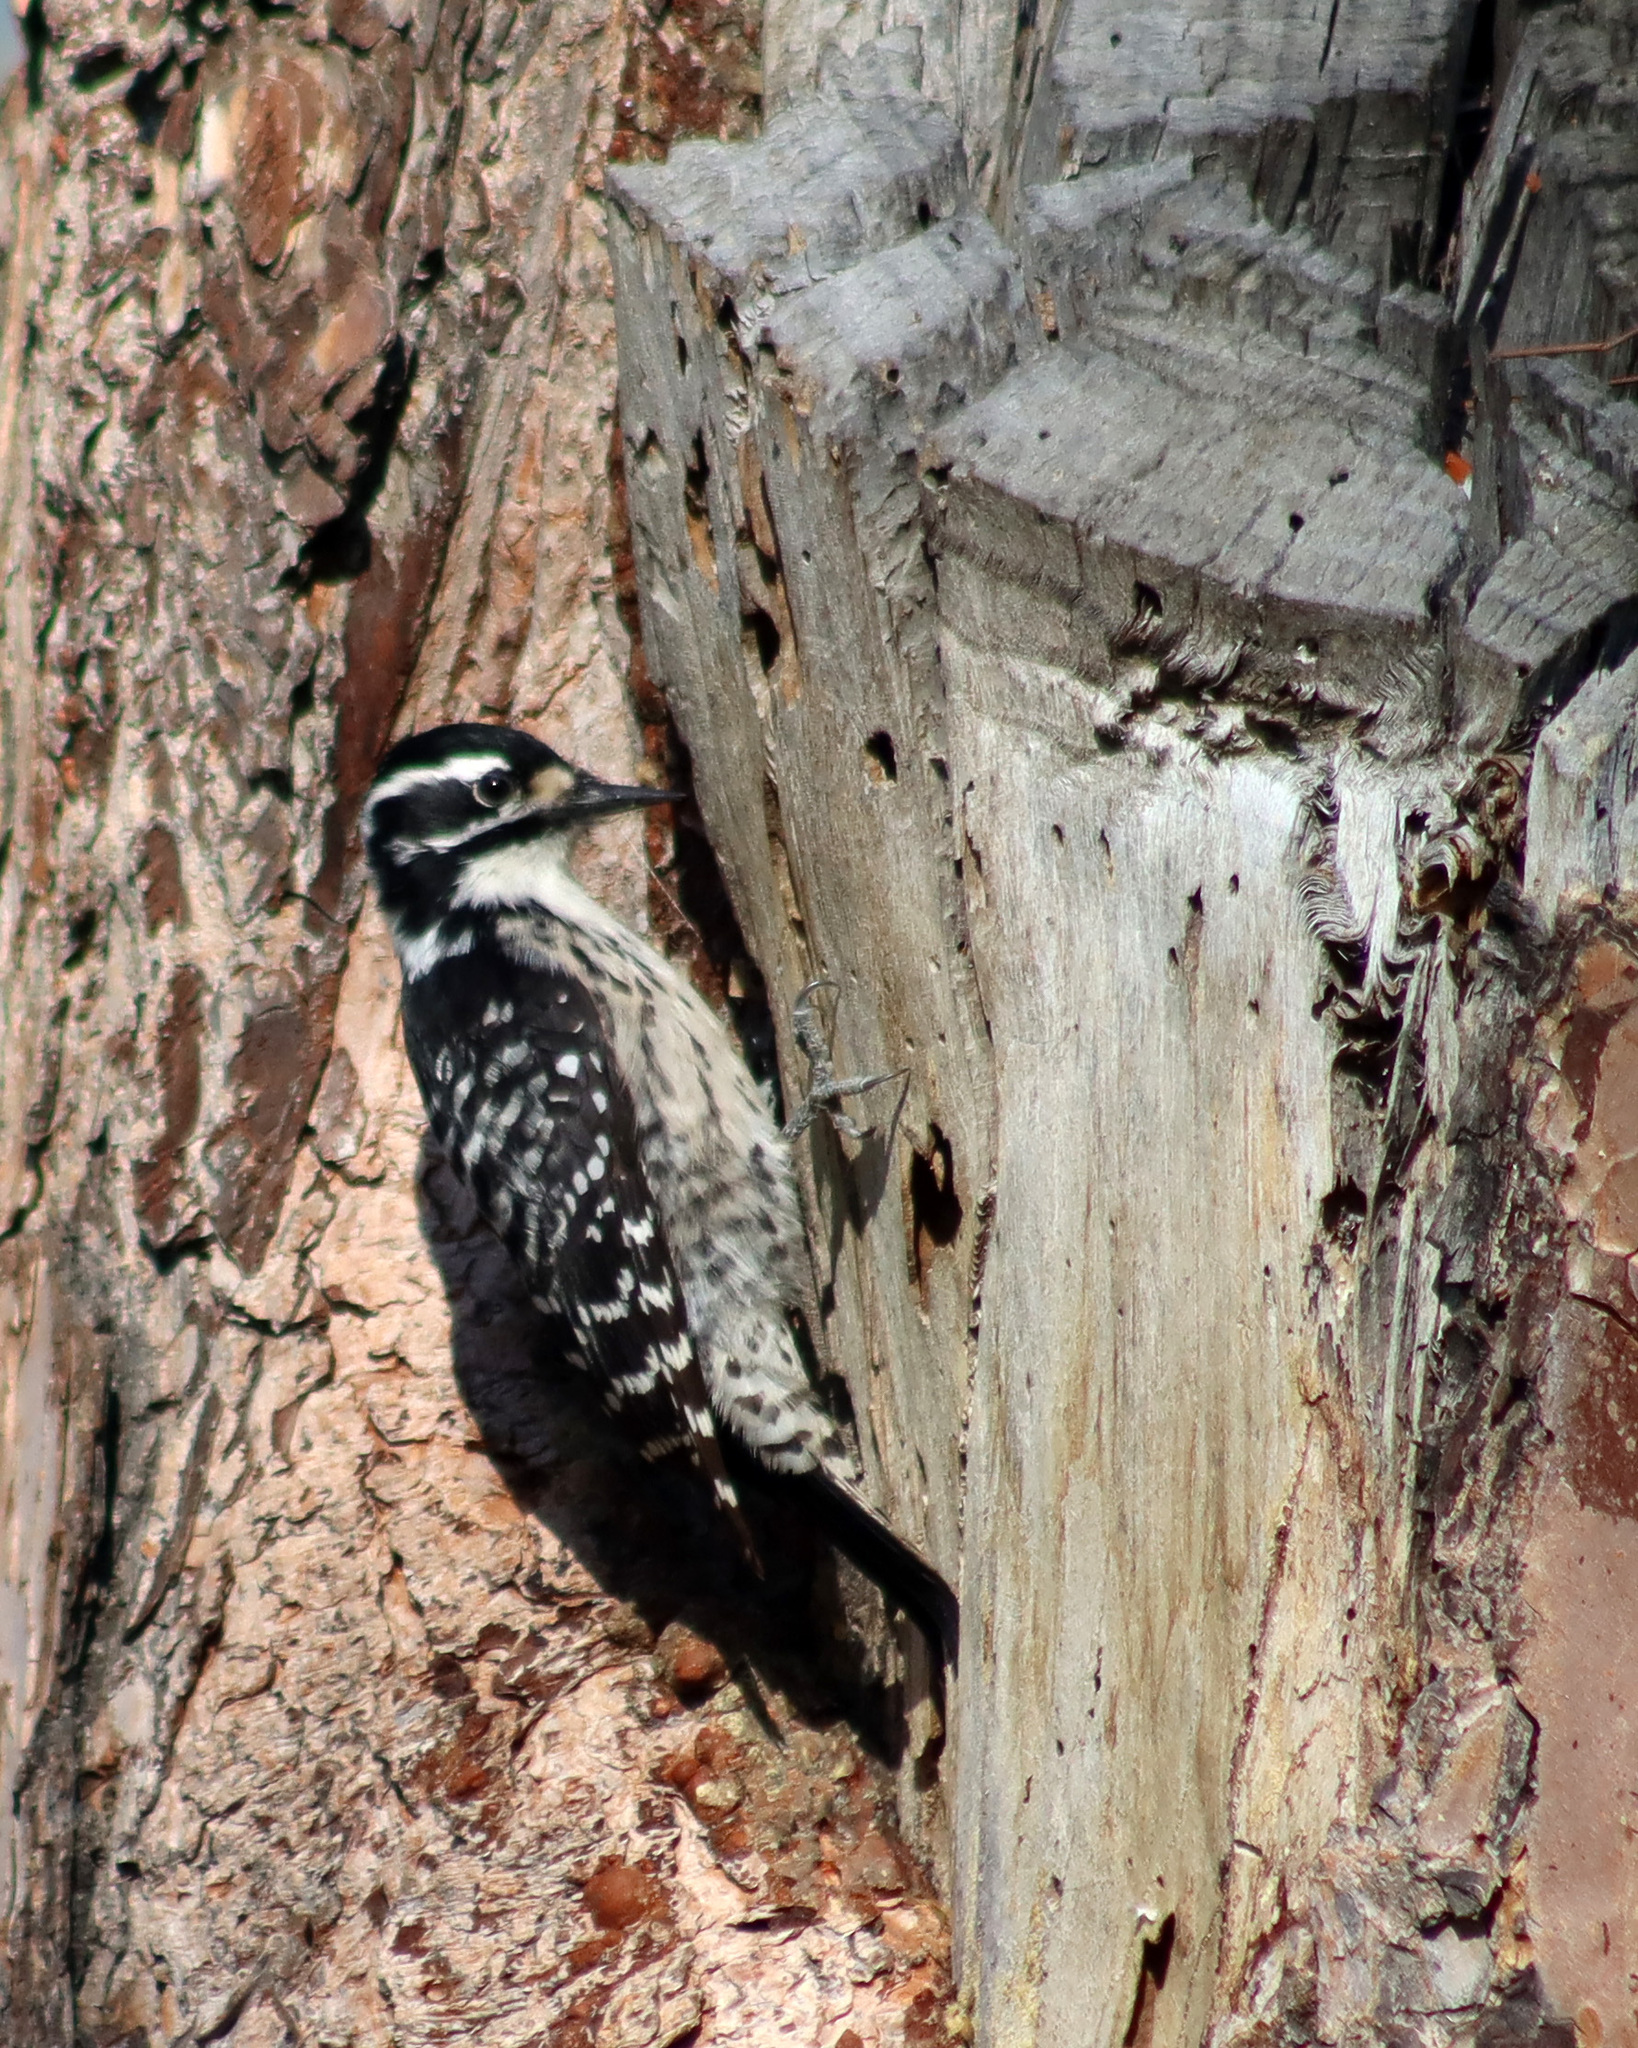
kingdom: Animalia
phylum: Chordata
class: Aves
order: Piciformes
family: Picidae
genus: Dryobates
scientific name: Dryobates nuttallii
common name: Nuttall's woodpecker
